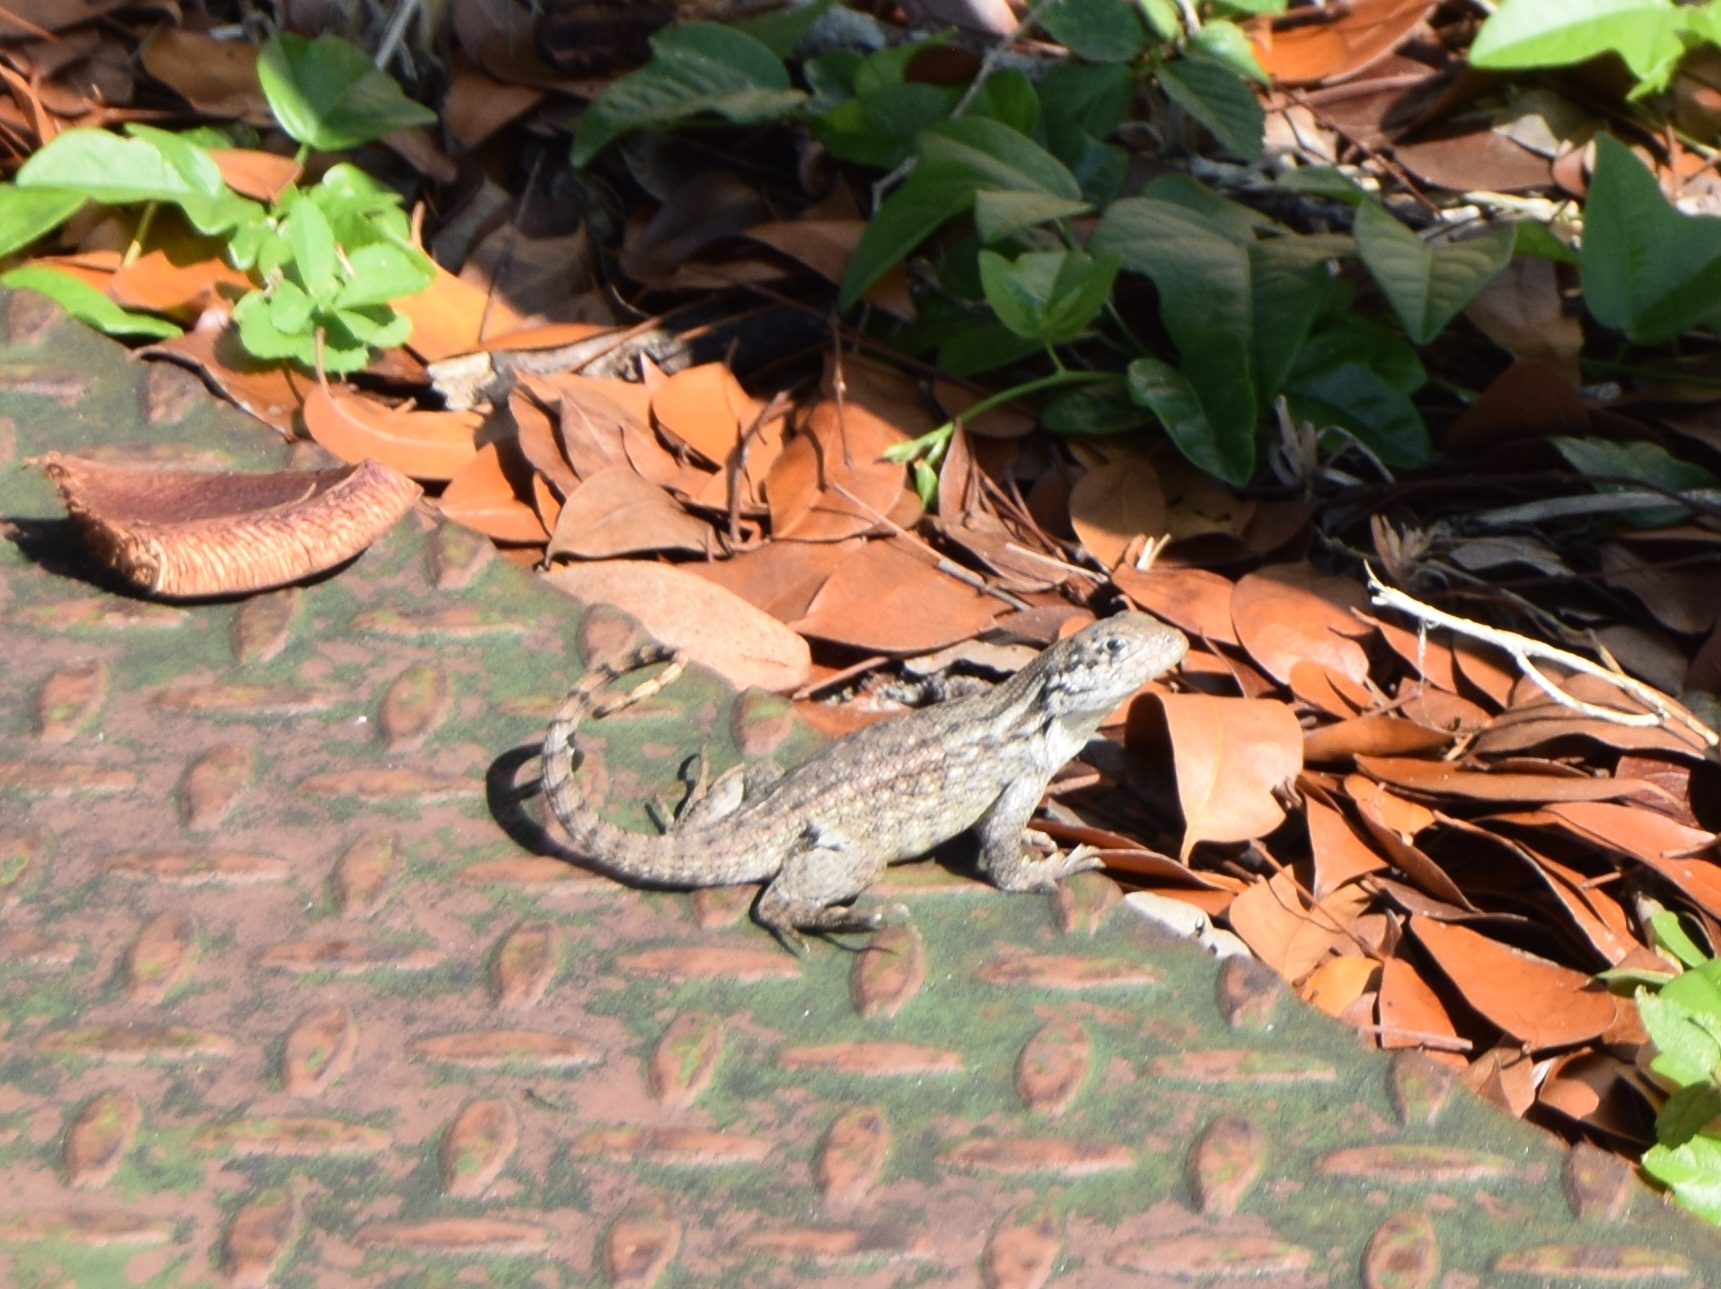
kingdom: Animalia
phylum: Chordata
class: Squamata
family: Leiocephalidae
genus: Leiocephalus
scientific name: Leiocephalus carinatus
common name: Northern curly-tailed lizard
